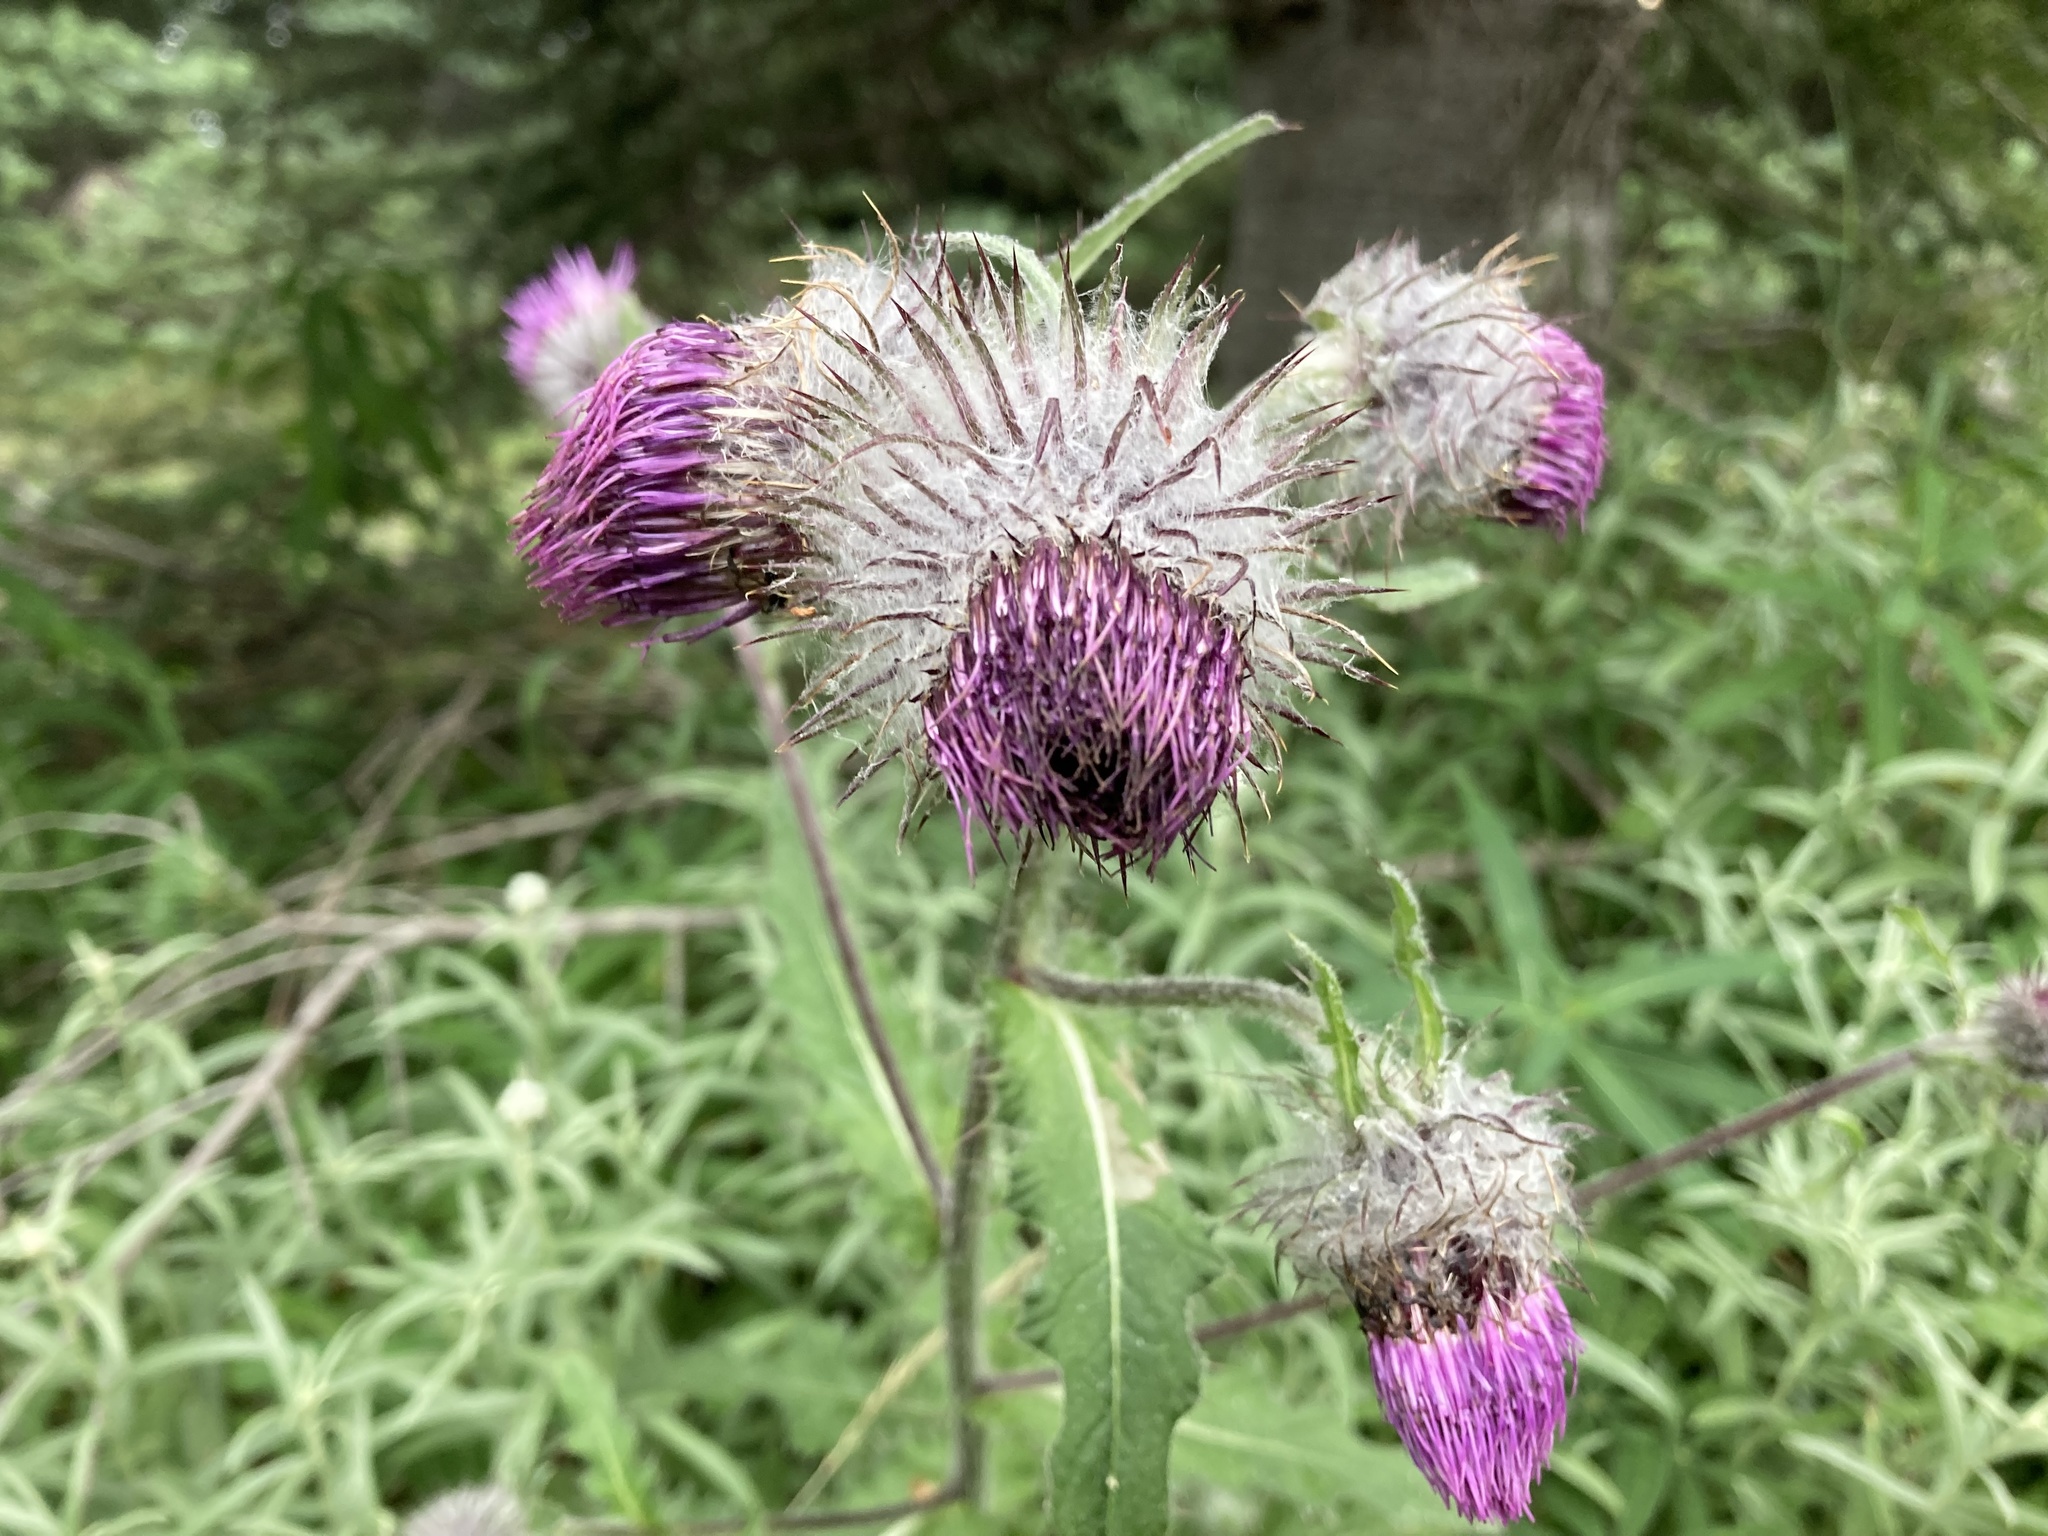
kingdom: Plantae
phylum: Tracheophyta
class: Magnoliopsida
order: Asterales
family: Asteraceae
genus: Cirsium
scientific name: Cirsium edule
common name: Indian thistle
